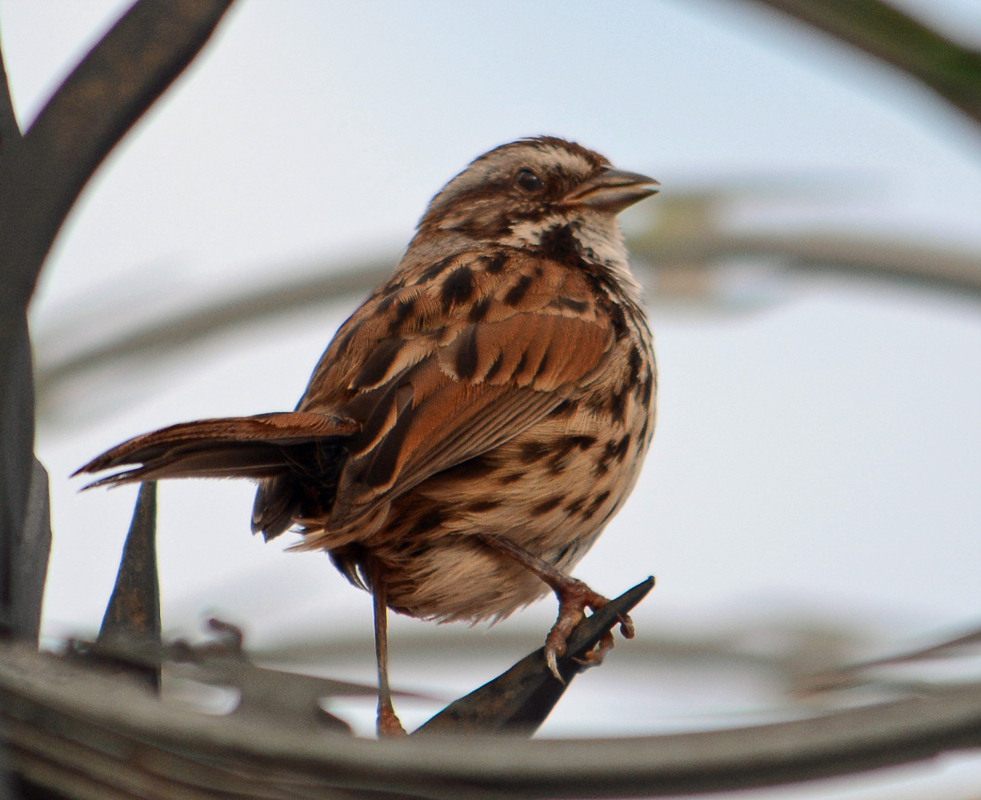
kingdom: Animalia
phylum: Chordata
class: Aves
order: Passeriformes
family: Passerellidae
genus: Melospiza
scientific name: Melospiza melodia
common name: Song sparrow
